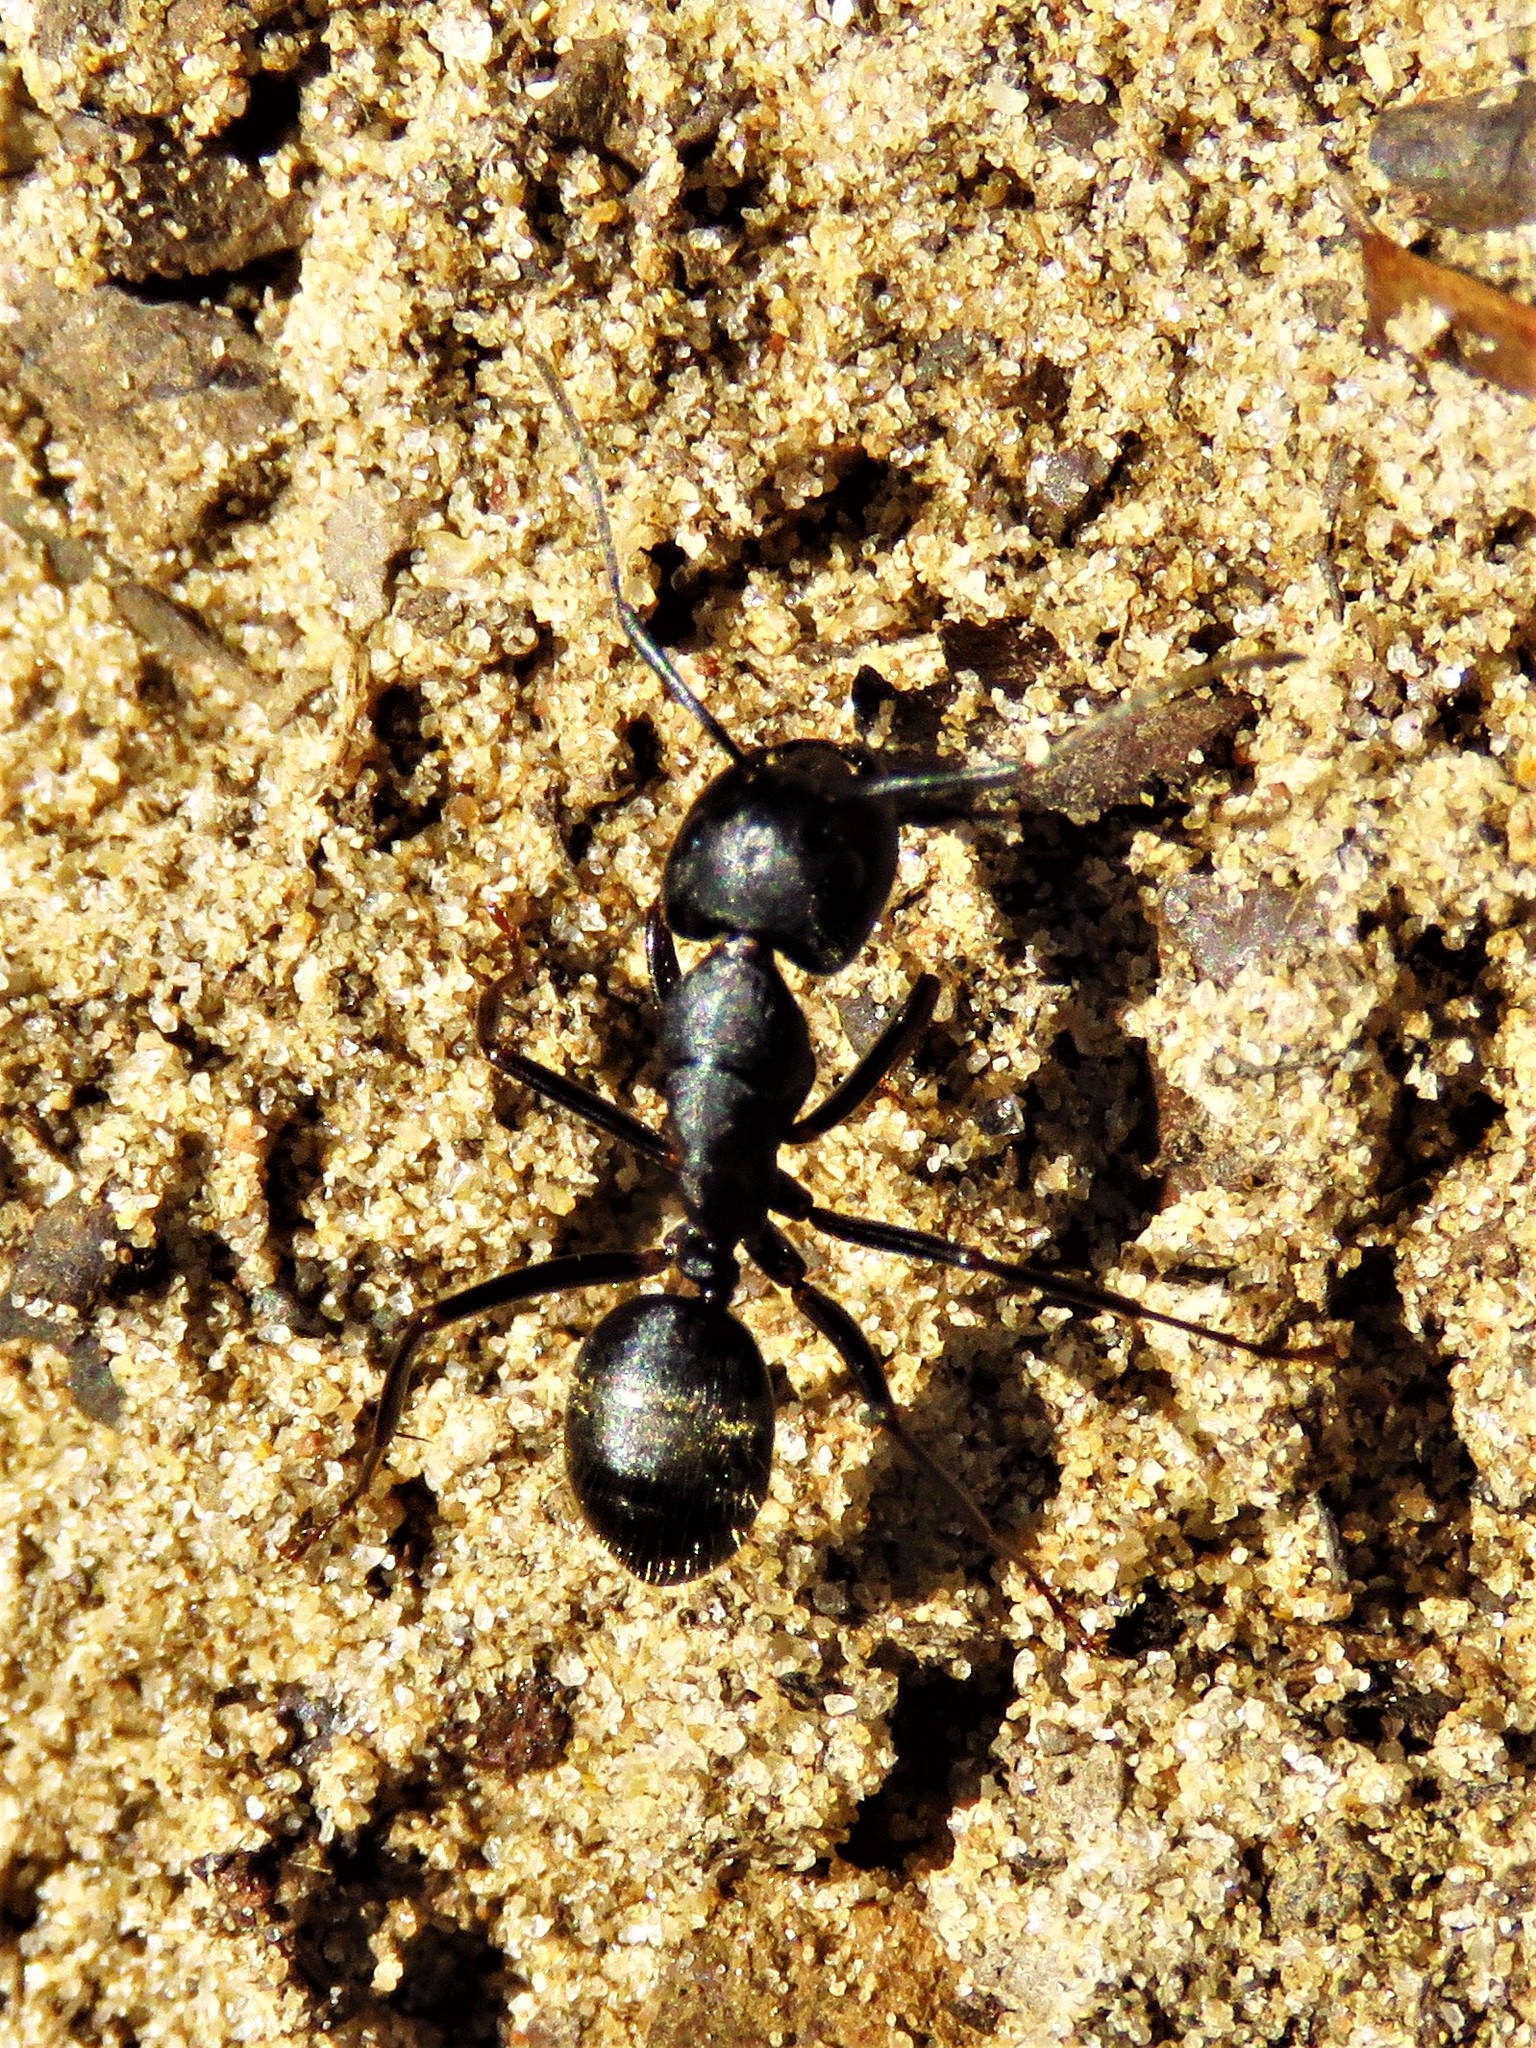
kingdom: Animalia
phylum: Arthropoda
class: Insecta
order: Hymenoptera
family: Formicidae
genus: Camponotus
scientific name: Camponotus pennsylvanicus
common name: Black carpenter ant
